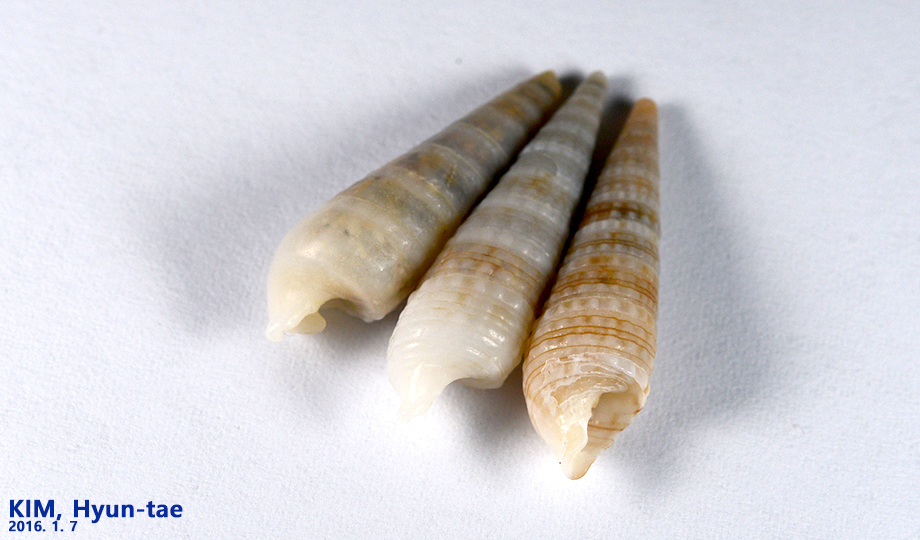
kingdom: Animalia
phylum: Mollusca
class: Gastropoda
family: Cerithiidae
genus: Rhinoclavis
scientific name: Rhinoclavis kochi
